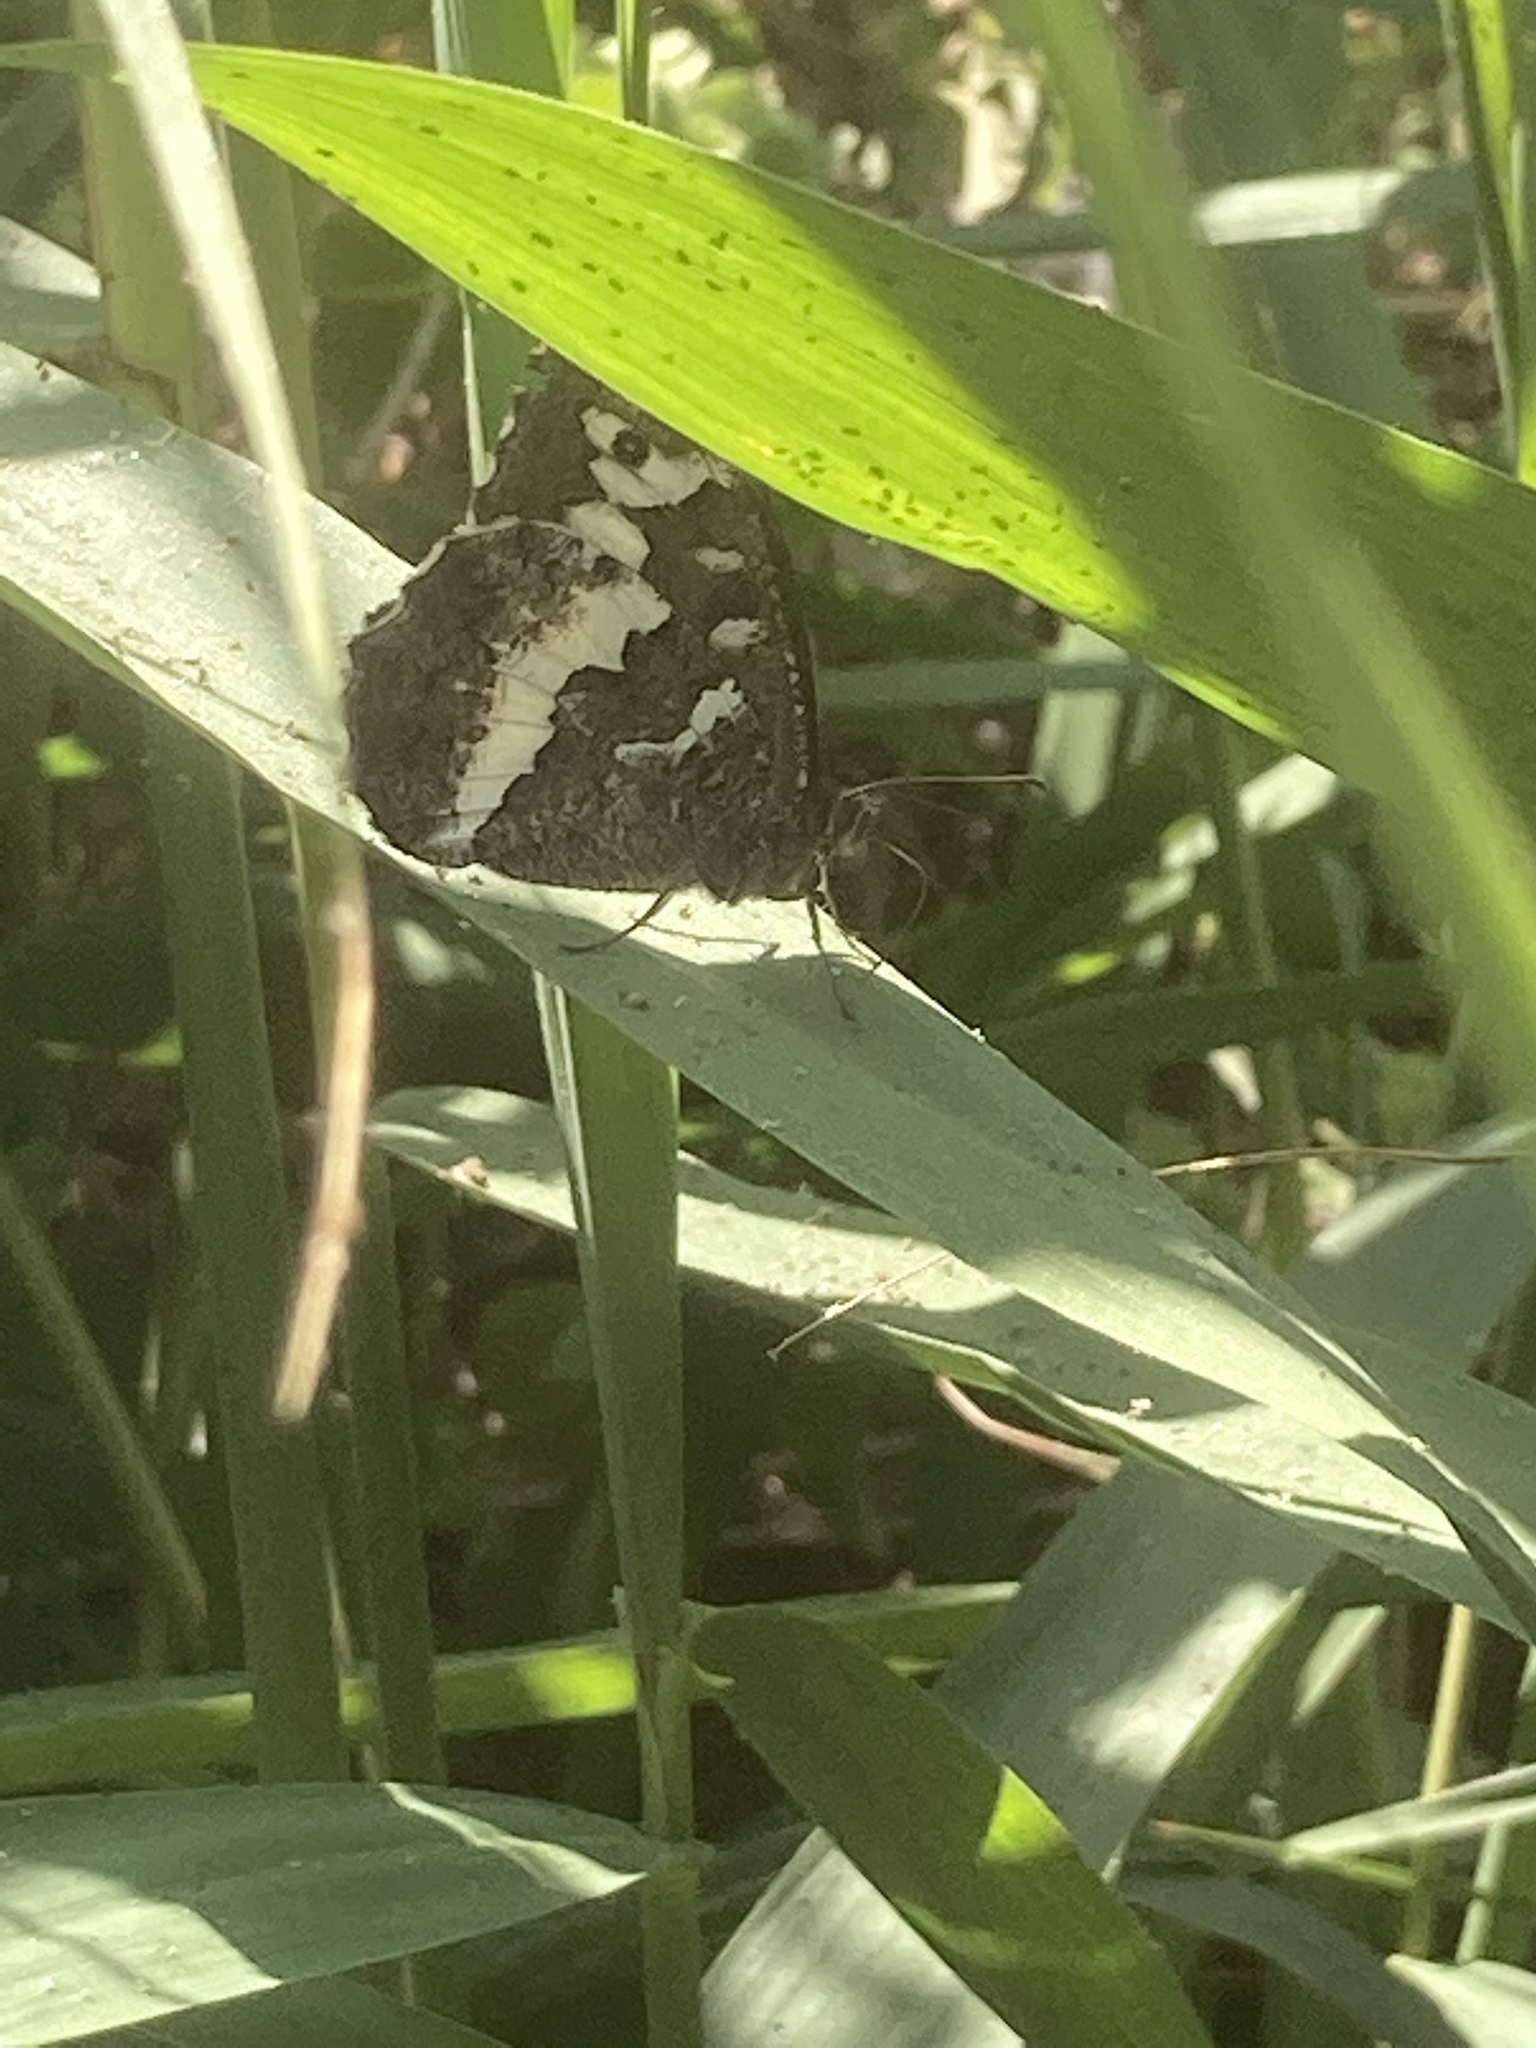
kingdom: Animalia
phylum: Arthropoda
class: Insecta
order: Lepidoptera
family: Lycaenidae
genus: Loweia
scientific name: Loweia tityrus
